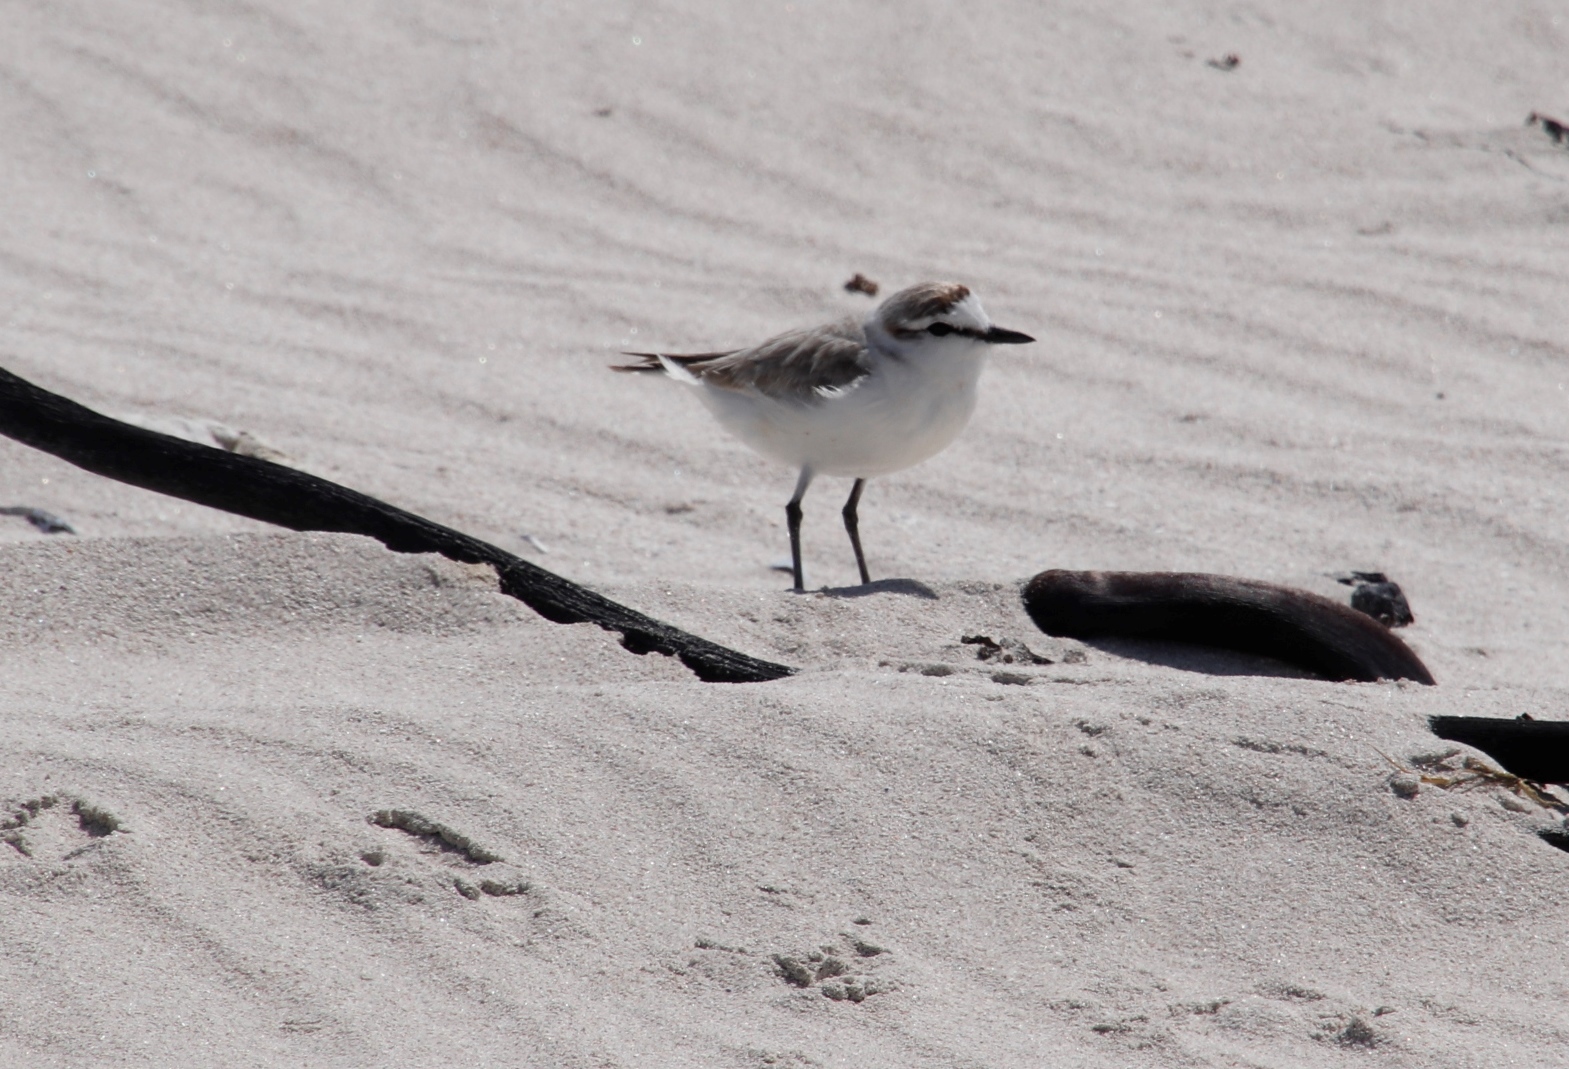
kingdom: Animalia
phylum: Chordata
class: Aves
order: Charadriiformes
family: Charadriidae
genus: Anarhynchus
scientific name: Anarhynchus
